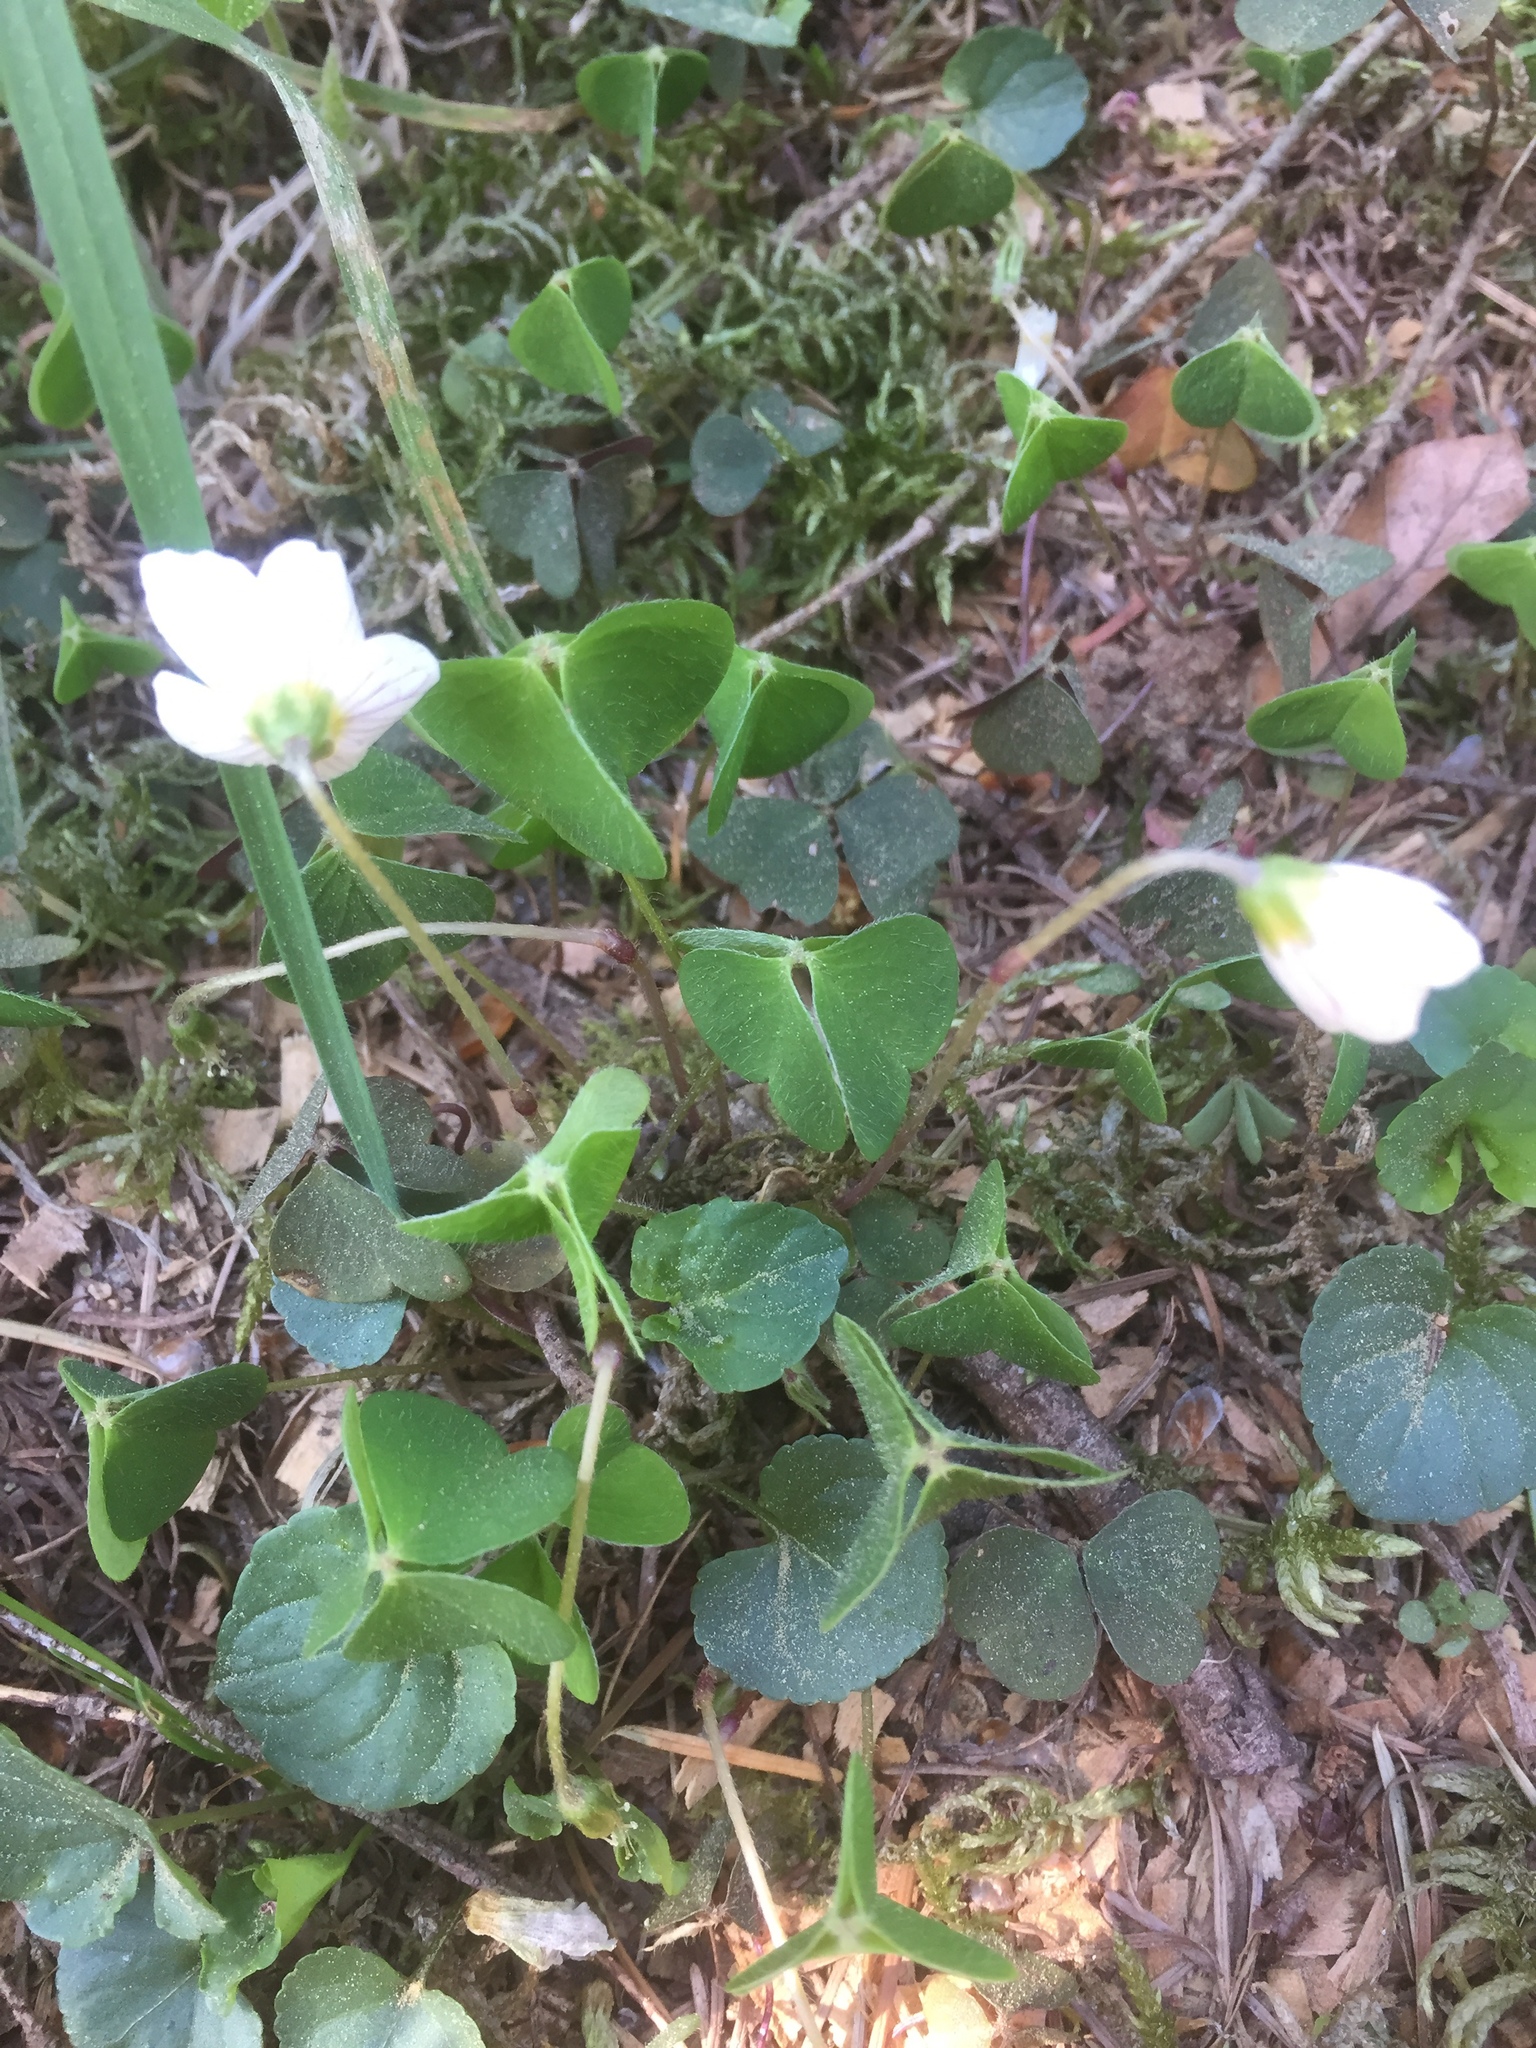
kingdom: Plantae
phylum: Tracheophyta
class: Magnoliopsida
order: Oxalidales
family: Oxalidaceae
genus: Oxalis
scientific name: Oxalis acetosella
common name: Wood-sorrel
